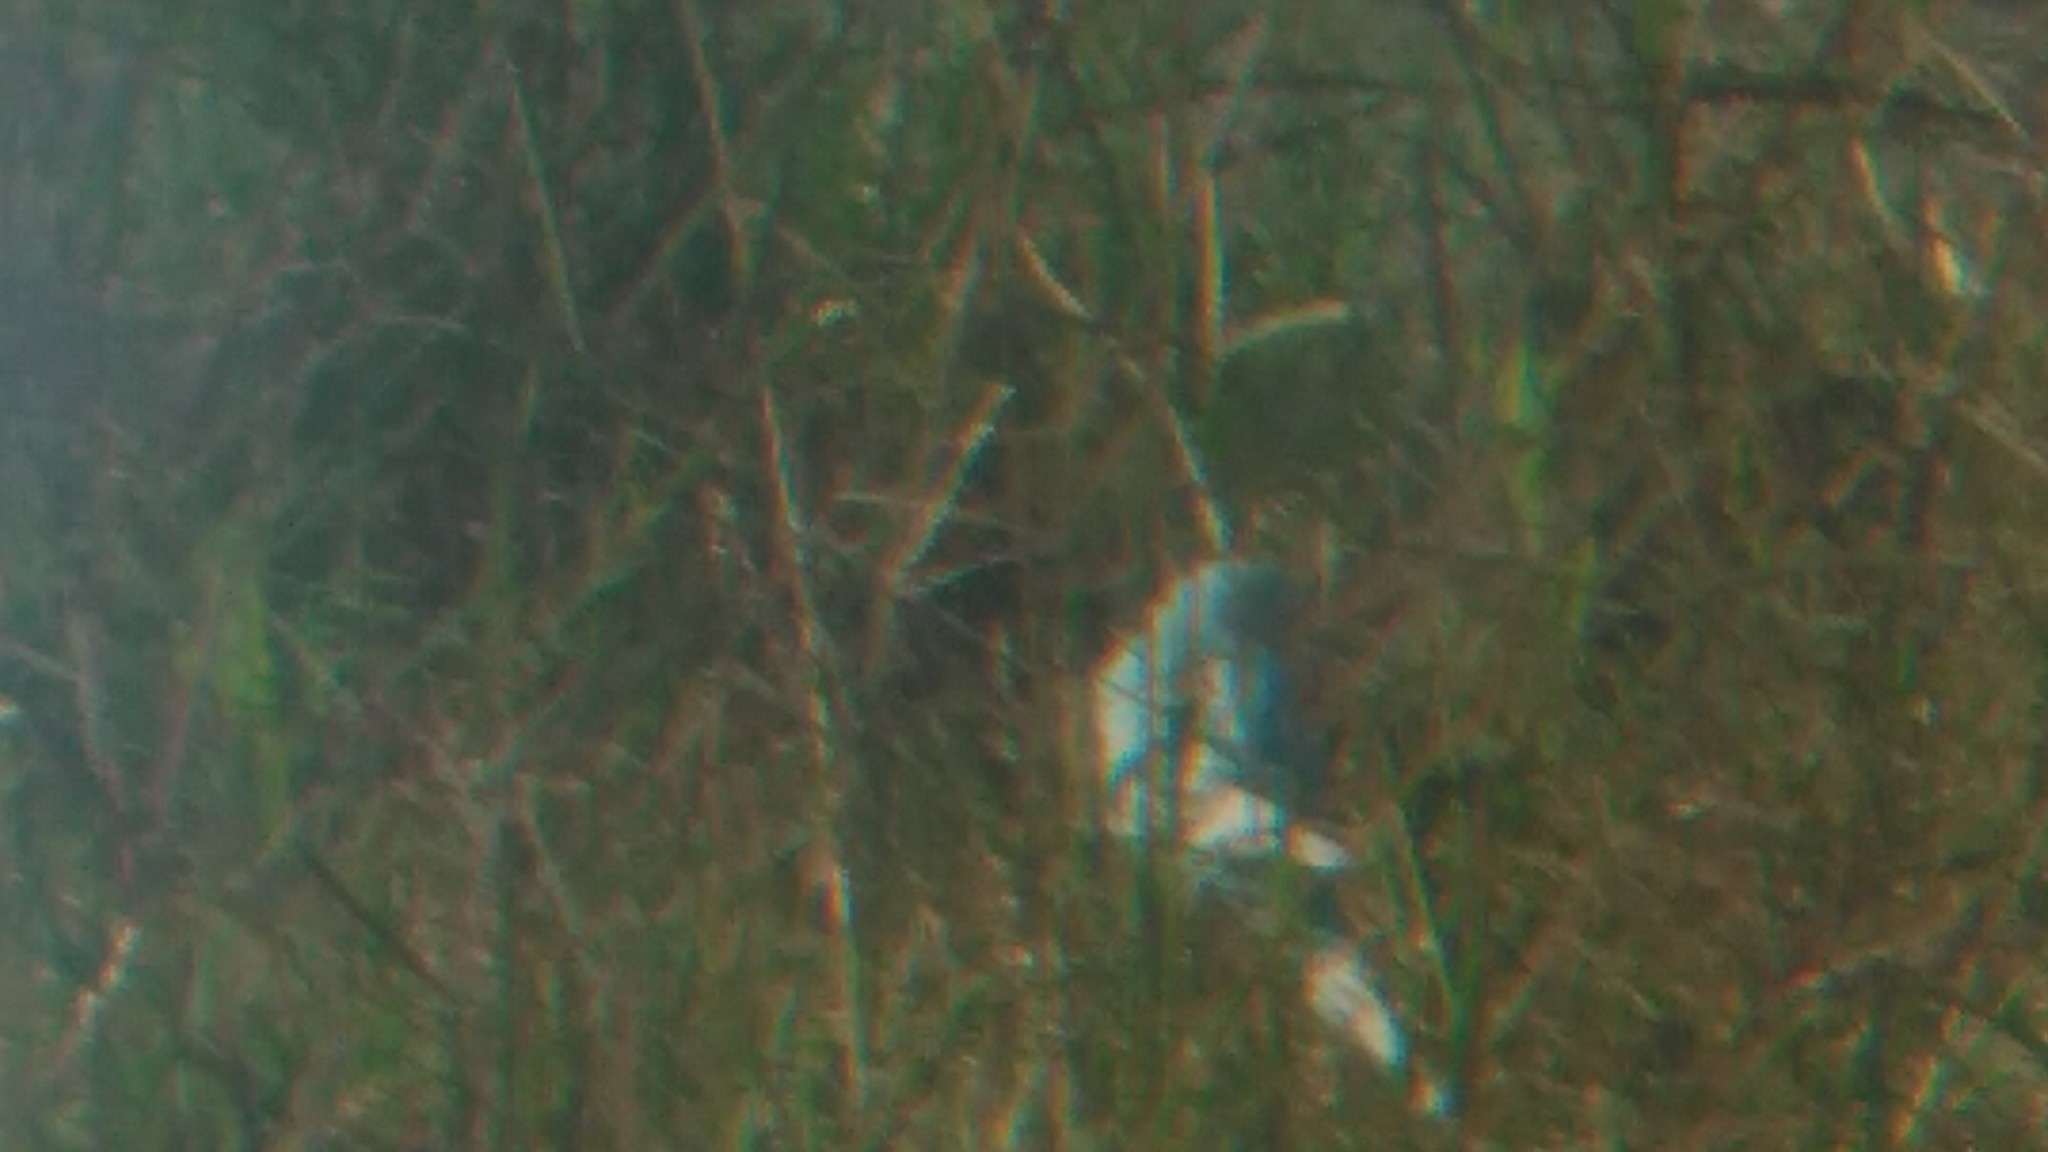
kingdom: Animalia
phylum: Chordata
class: Aves
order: Psittaciformes
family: Psittacidae
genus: Melopsittacus
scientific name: Melopsittacus undulatus
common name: Budgerigar
